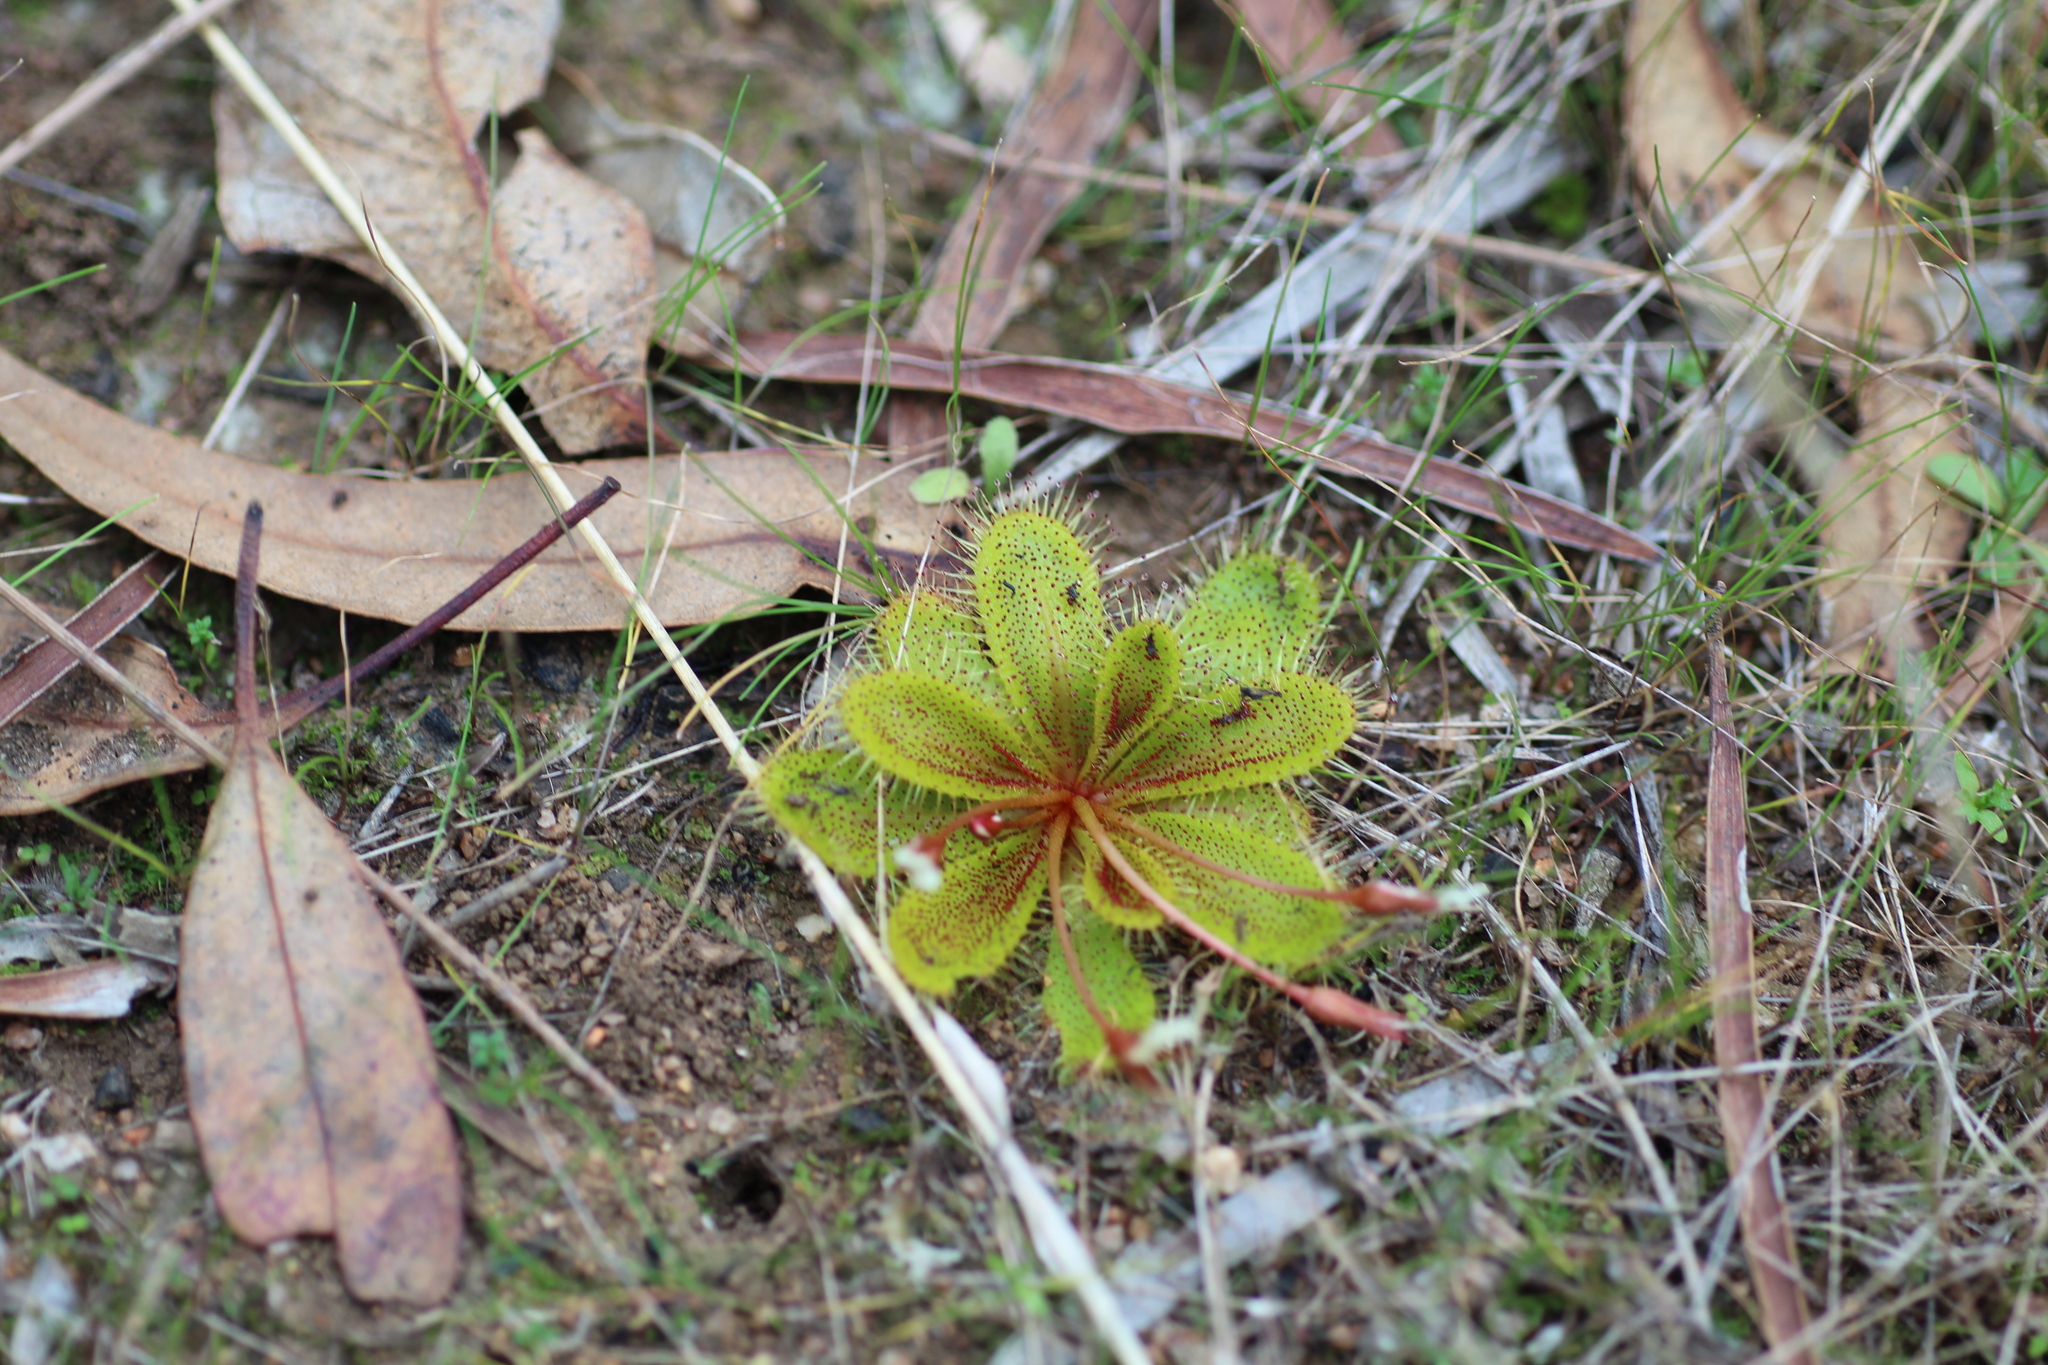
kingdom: Plantae
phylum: Tracheophyta
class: Magnoliopsida
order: Caryophyllales
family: Droseraceae
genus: Drosera
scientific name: Drosera bulbosa
